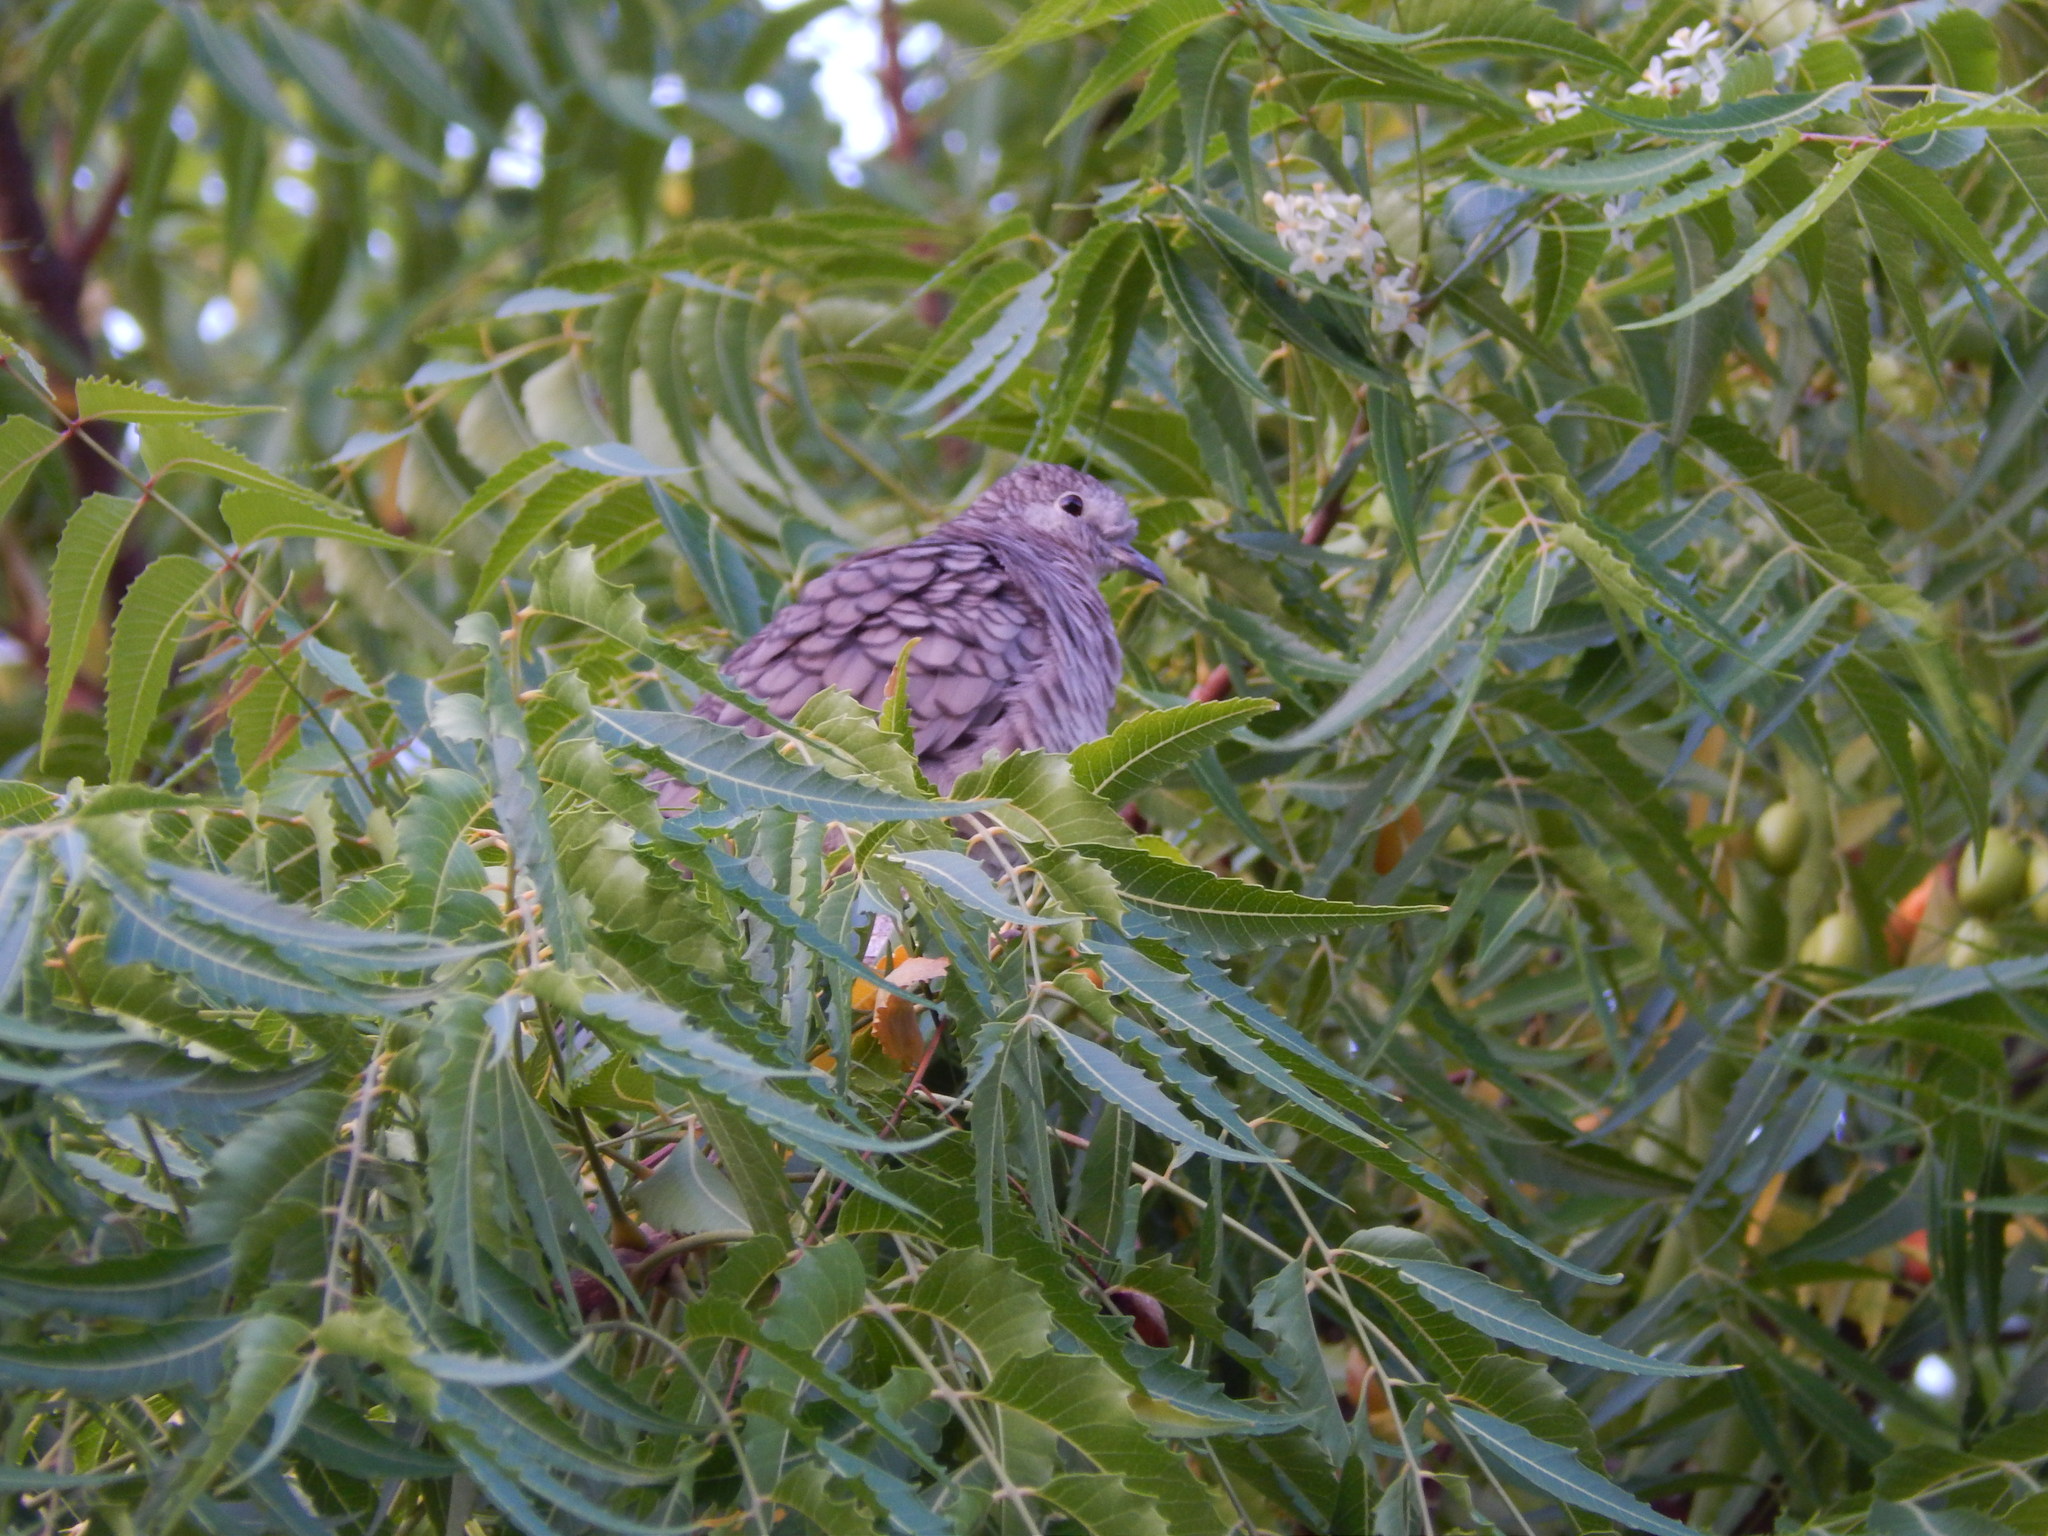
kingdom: Animalia
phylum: Chordata
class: Aves
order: Columbiformes
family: Columbidae
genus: Columbina
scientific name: Columbina inca
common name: Inca dove
